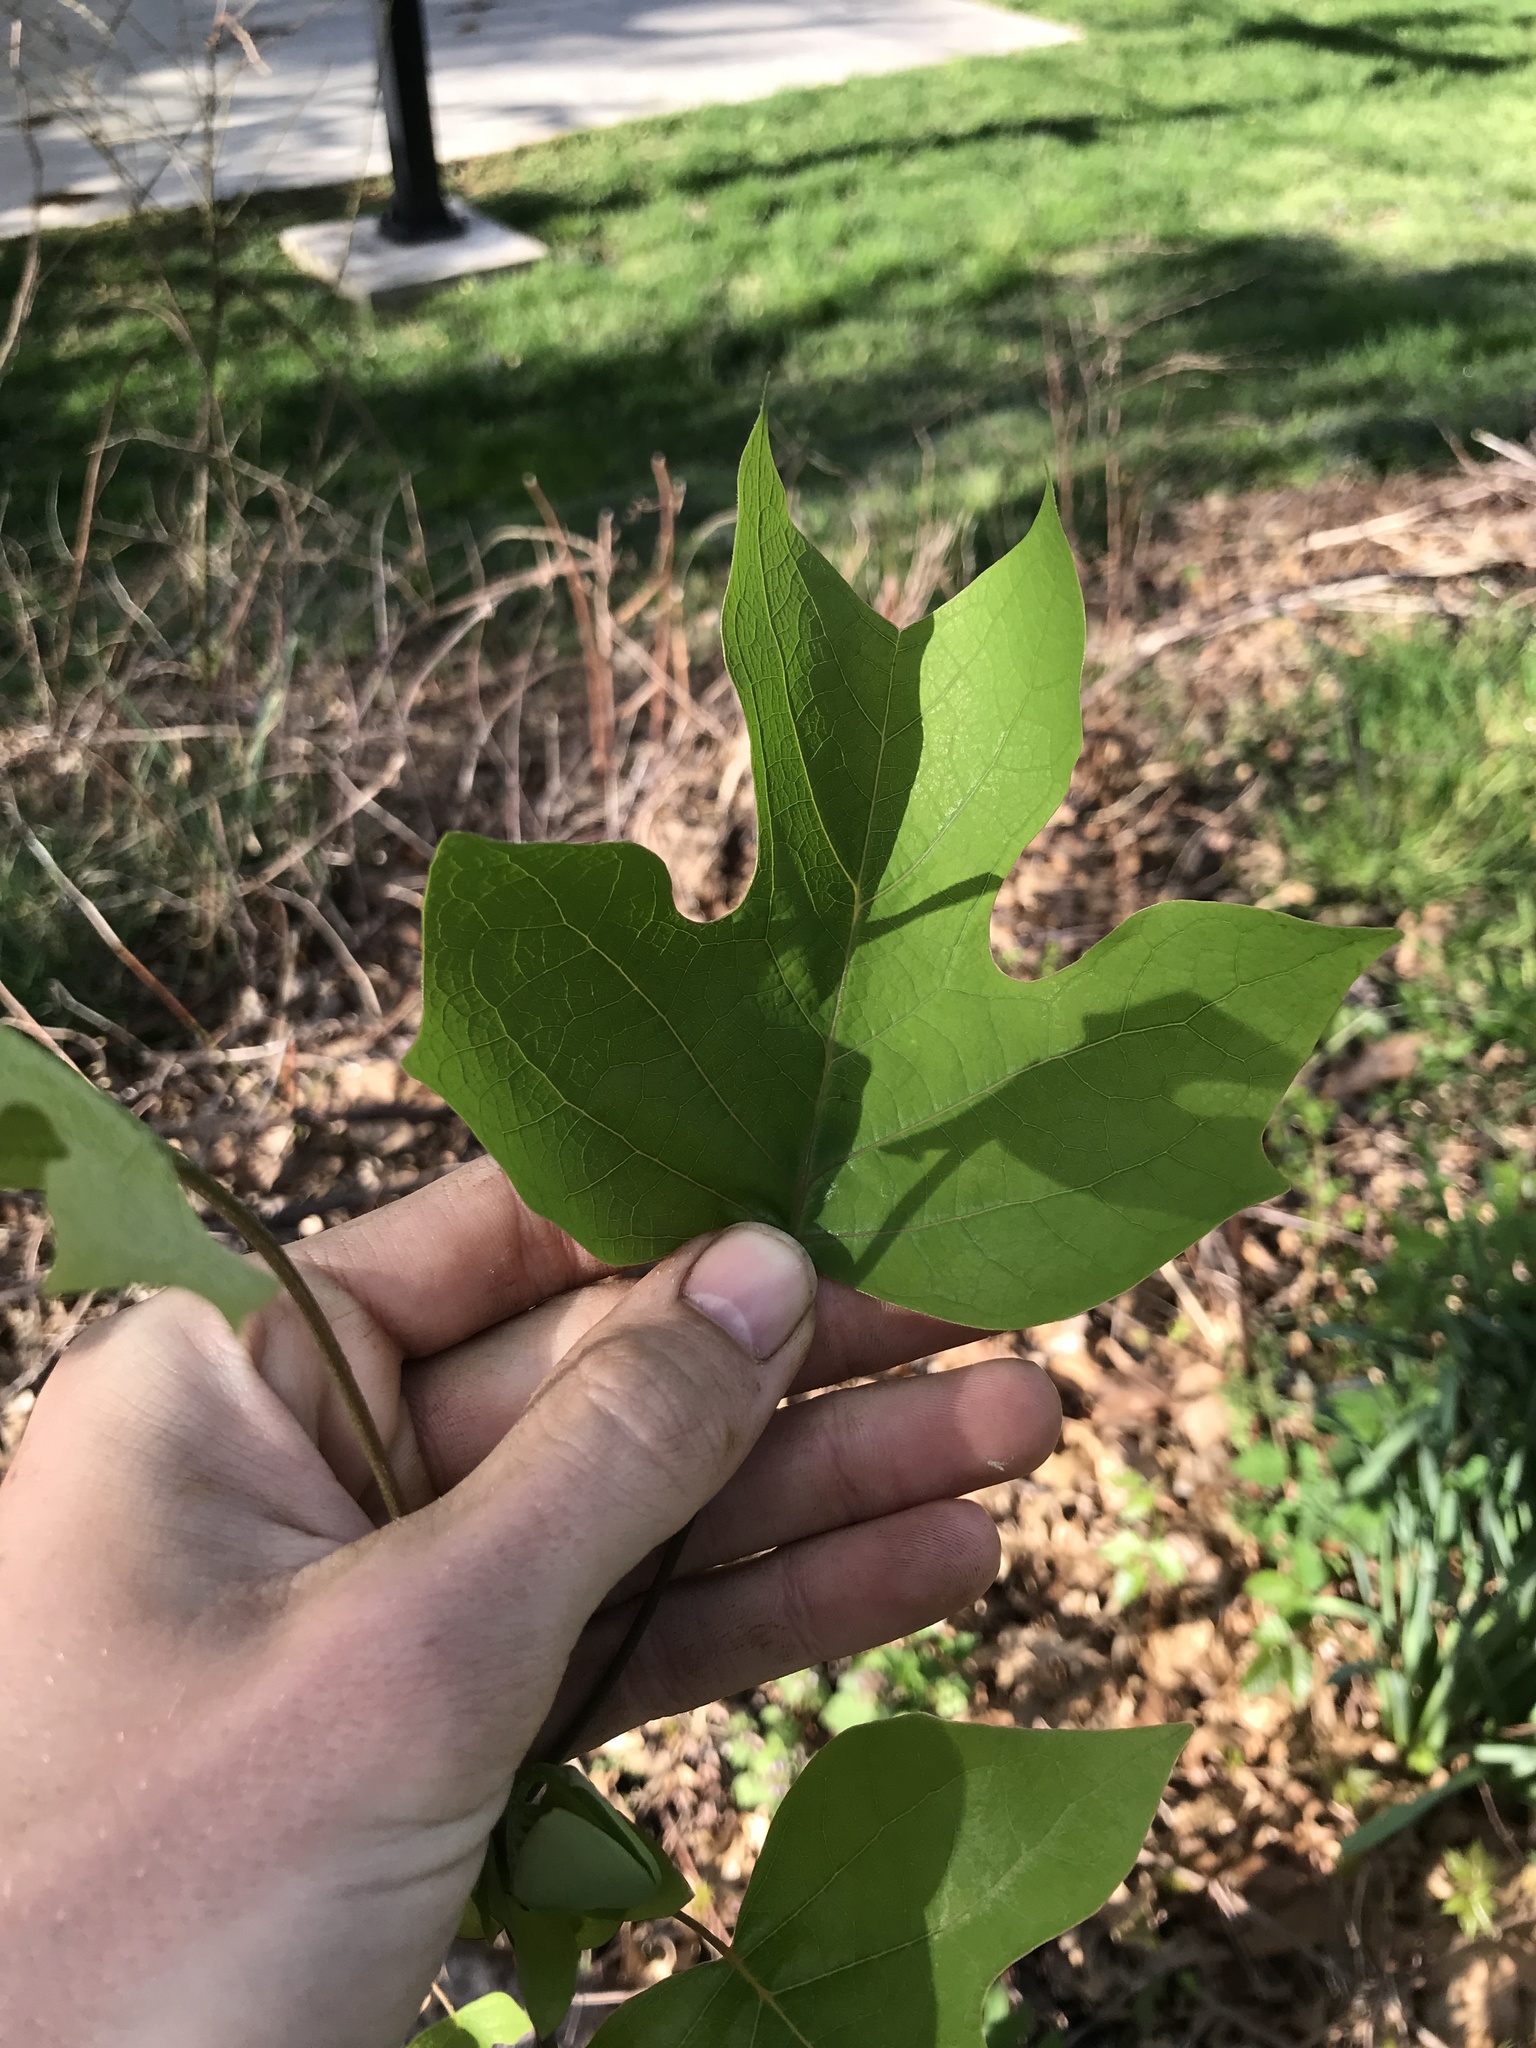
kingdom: Plantae
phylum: Tracheophyta
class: Magnoliopsida
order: Magnoliales
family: Magnoliaceae
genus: Liriodendron
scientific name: Liriodendron tulipifera
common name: Tulip tree
